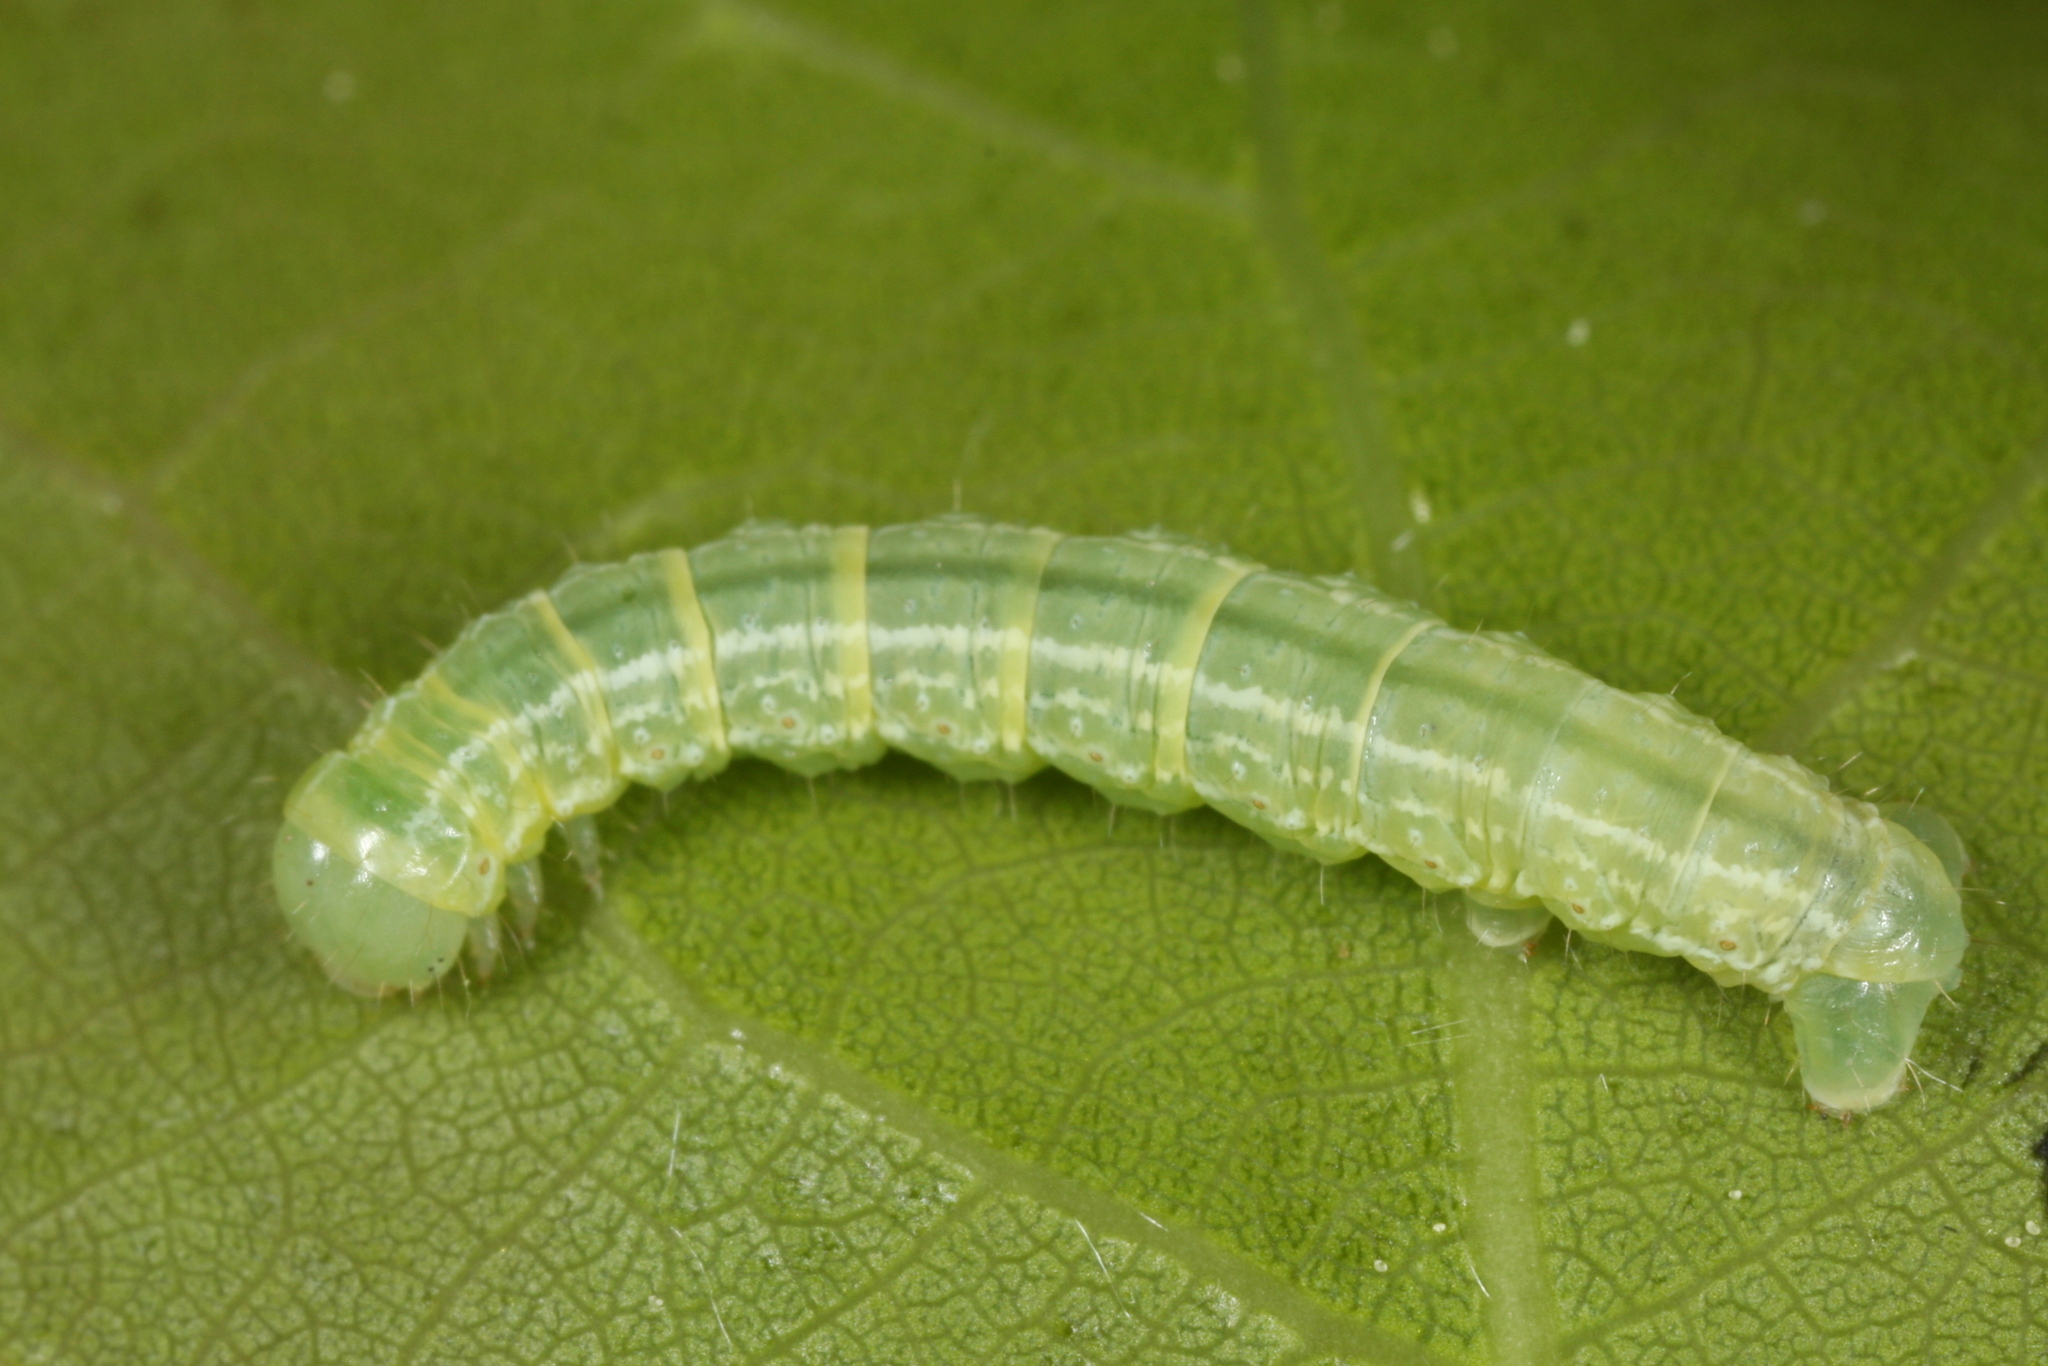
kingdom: Animalia
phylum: Arthropoda
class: Insecta
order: Lepidoptera
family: Geometridae
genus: Operophtera
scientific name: Operophtera brumata
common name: Winter moth
